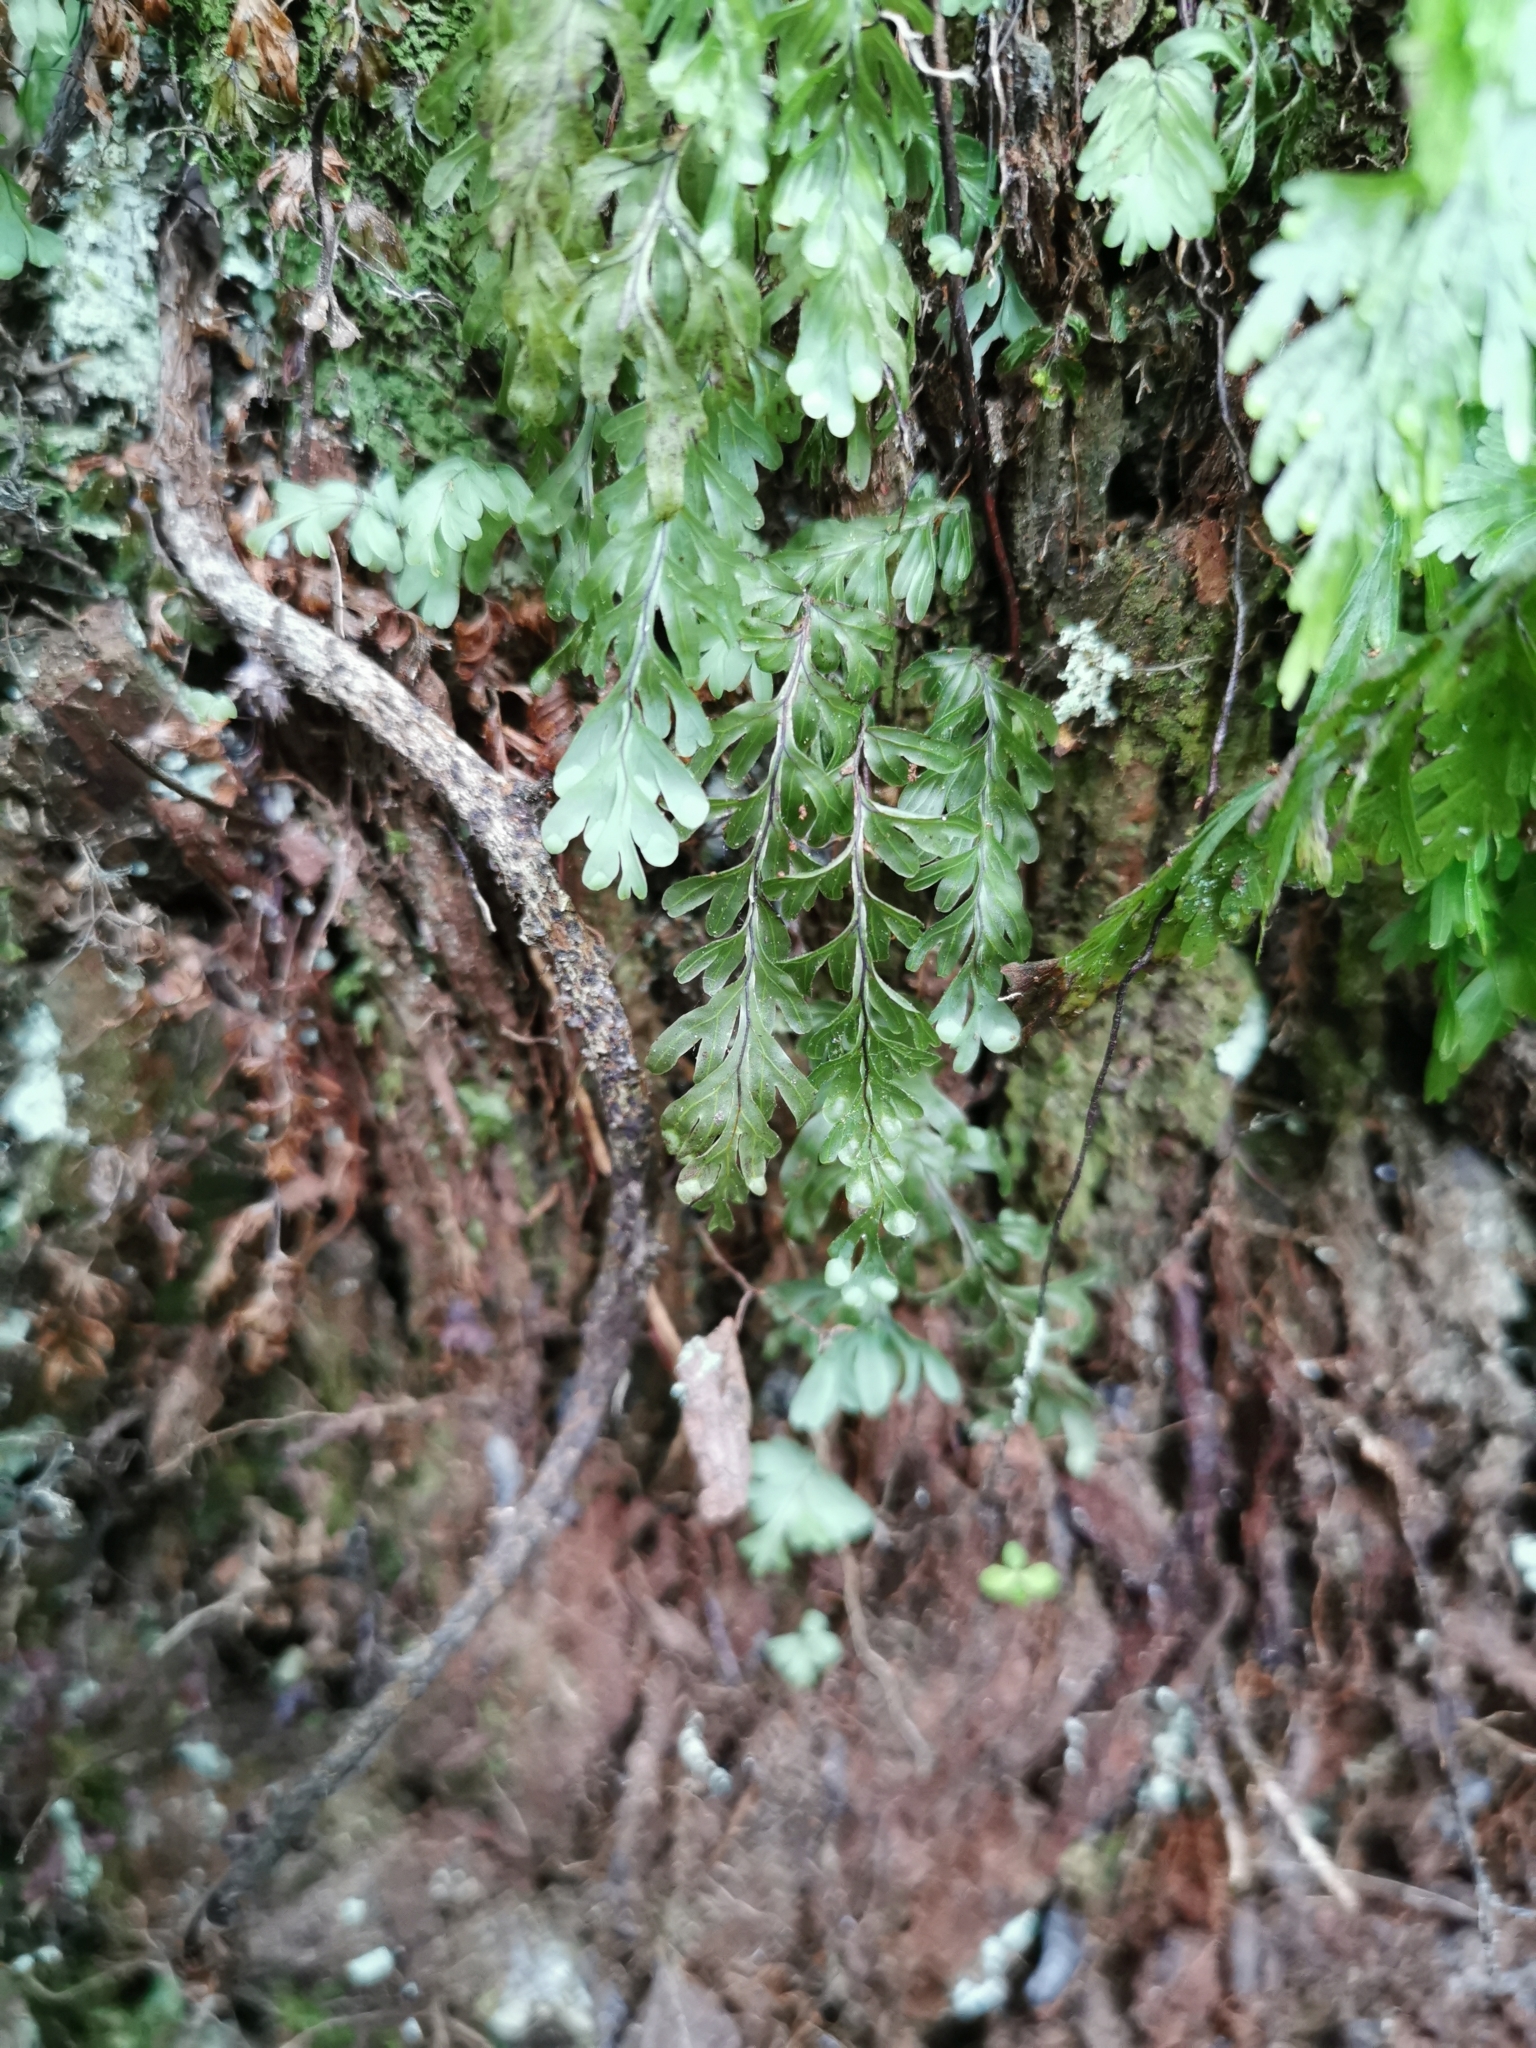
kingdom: Plantae
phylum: Tracheophyta
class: Polypodiopsida
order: Hymenophyllales
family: Hymenophyllaceae
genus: Hymenophyllum
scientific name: Hymenophyllum rarum
